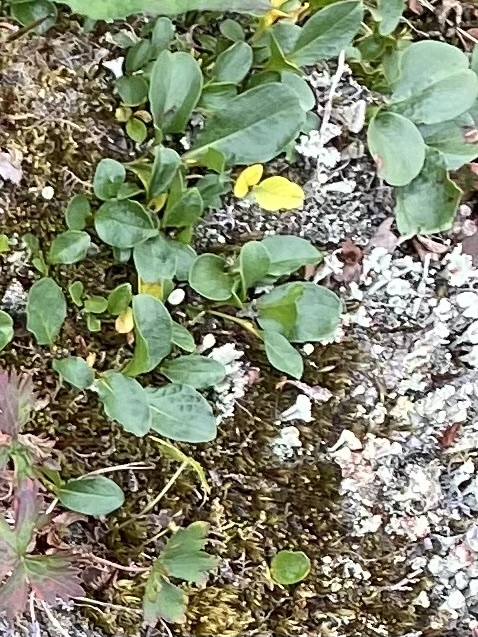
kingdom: Plantae
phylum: Tracheophyta
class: Magnoliopsida
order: Malpighiales
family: Salicaceae
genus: Salix
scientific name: Salix polaris
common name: Polar willow
